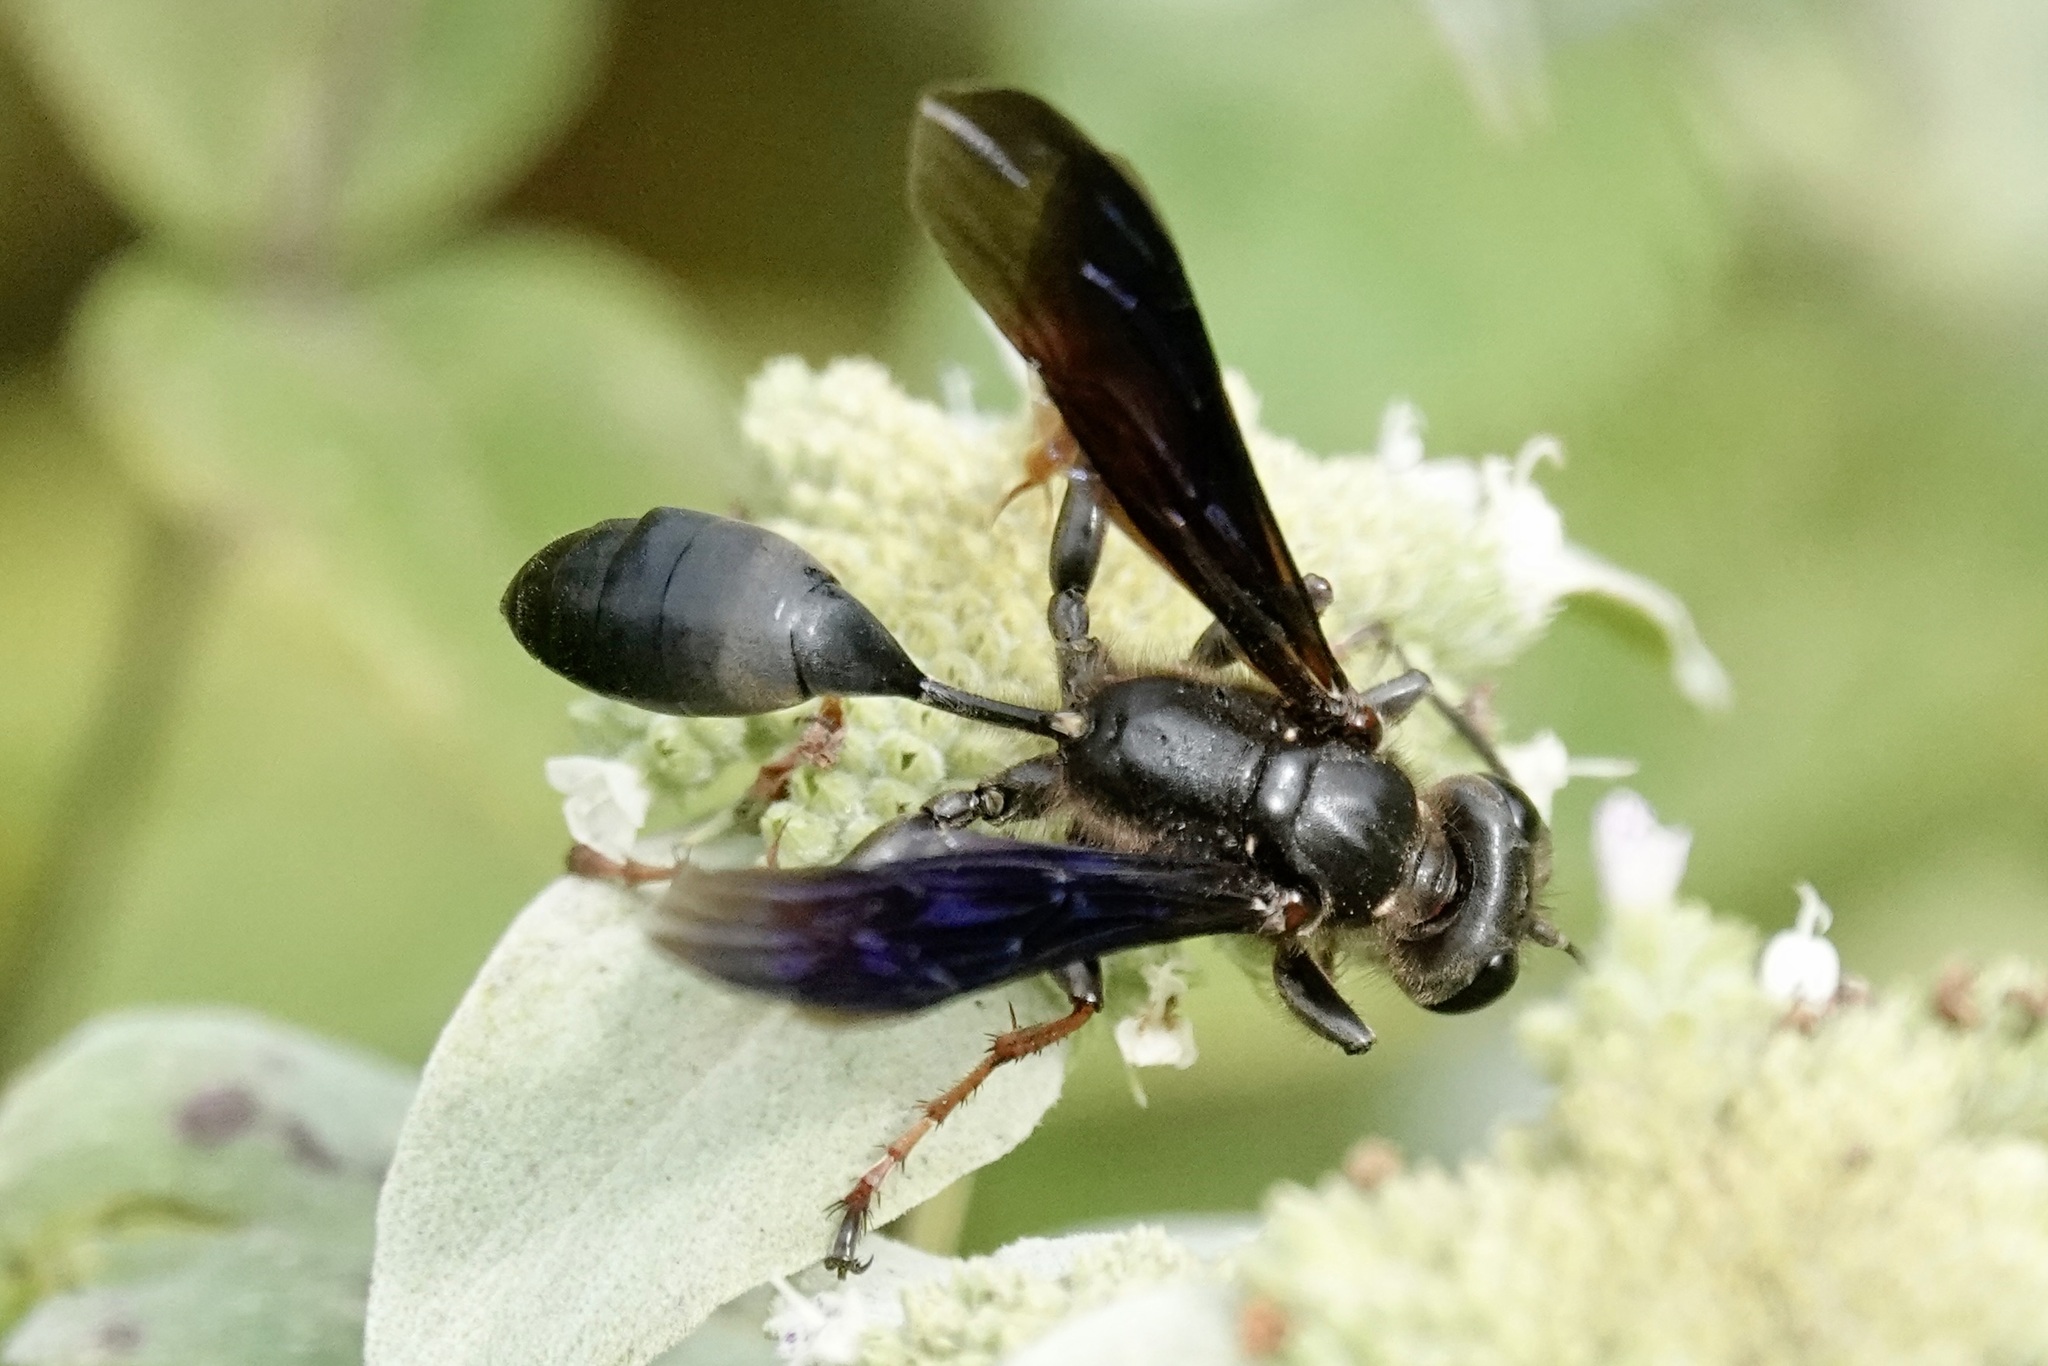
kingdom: Animalia
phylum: Arthropoda
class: Insecta
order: Hymenoptera
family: Sphecidae
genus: Isodontia
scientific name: Isodontia auripes
